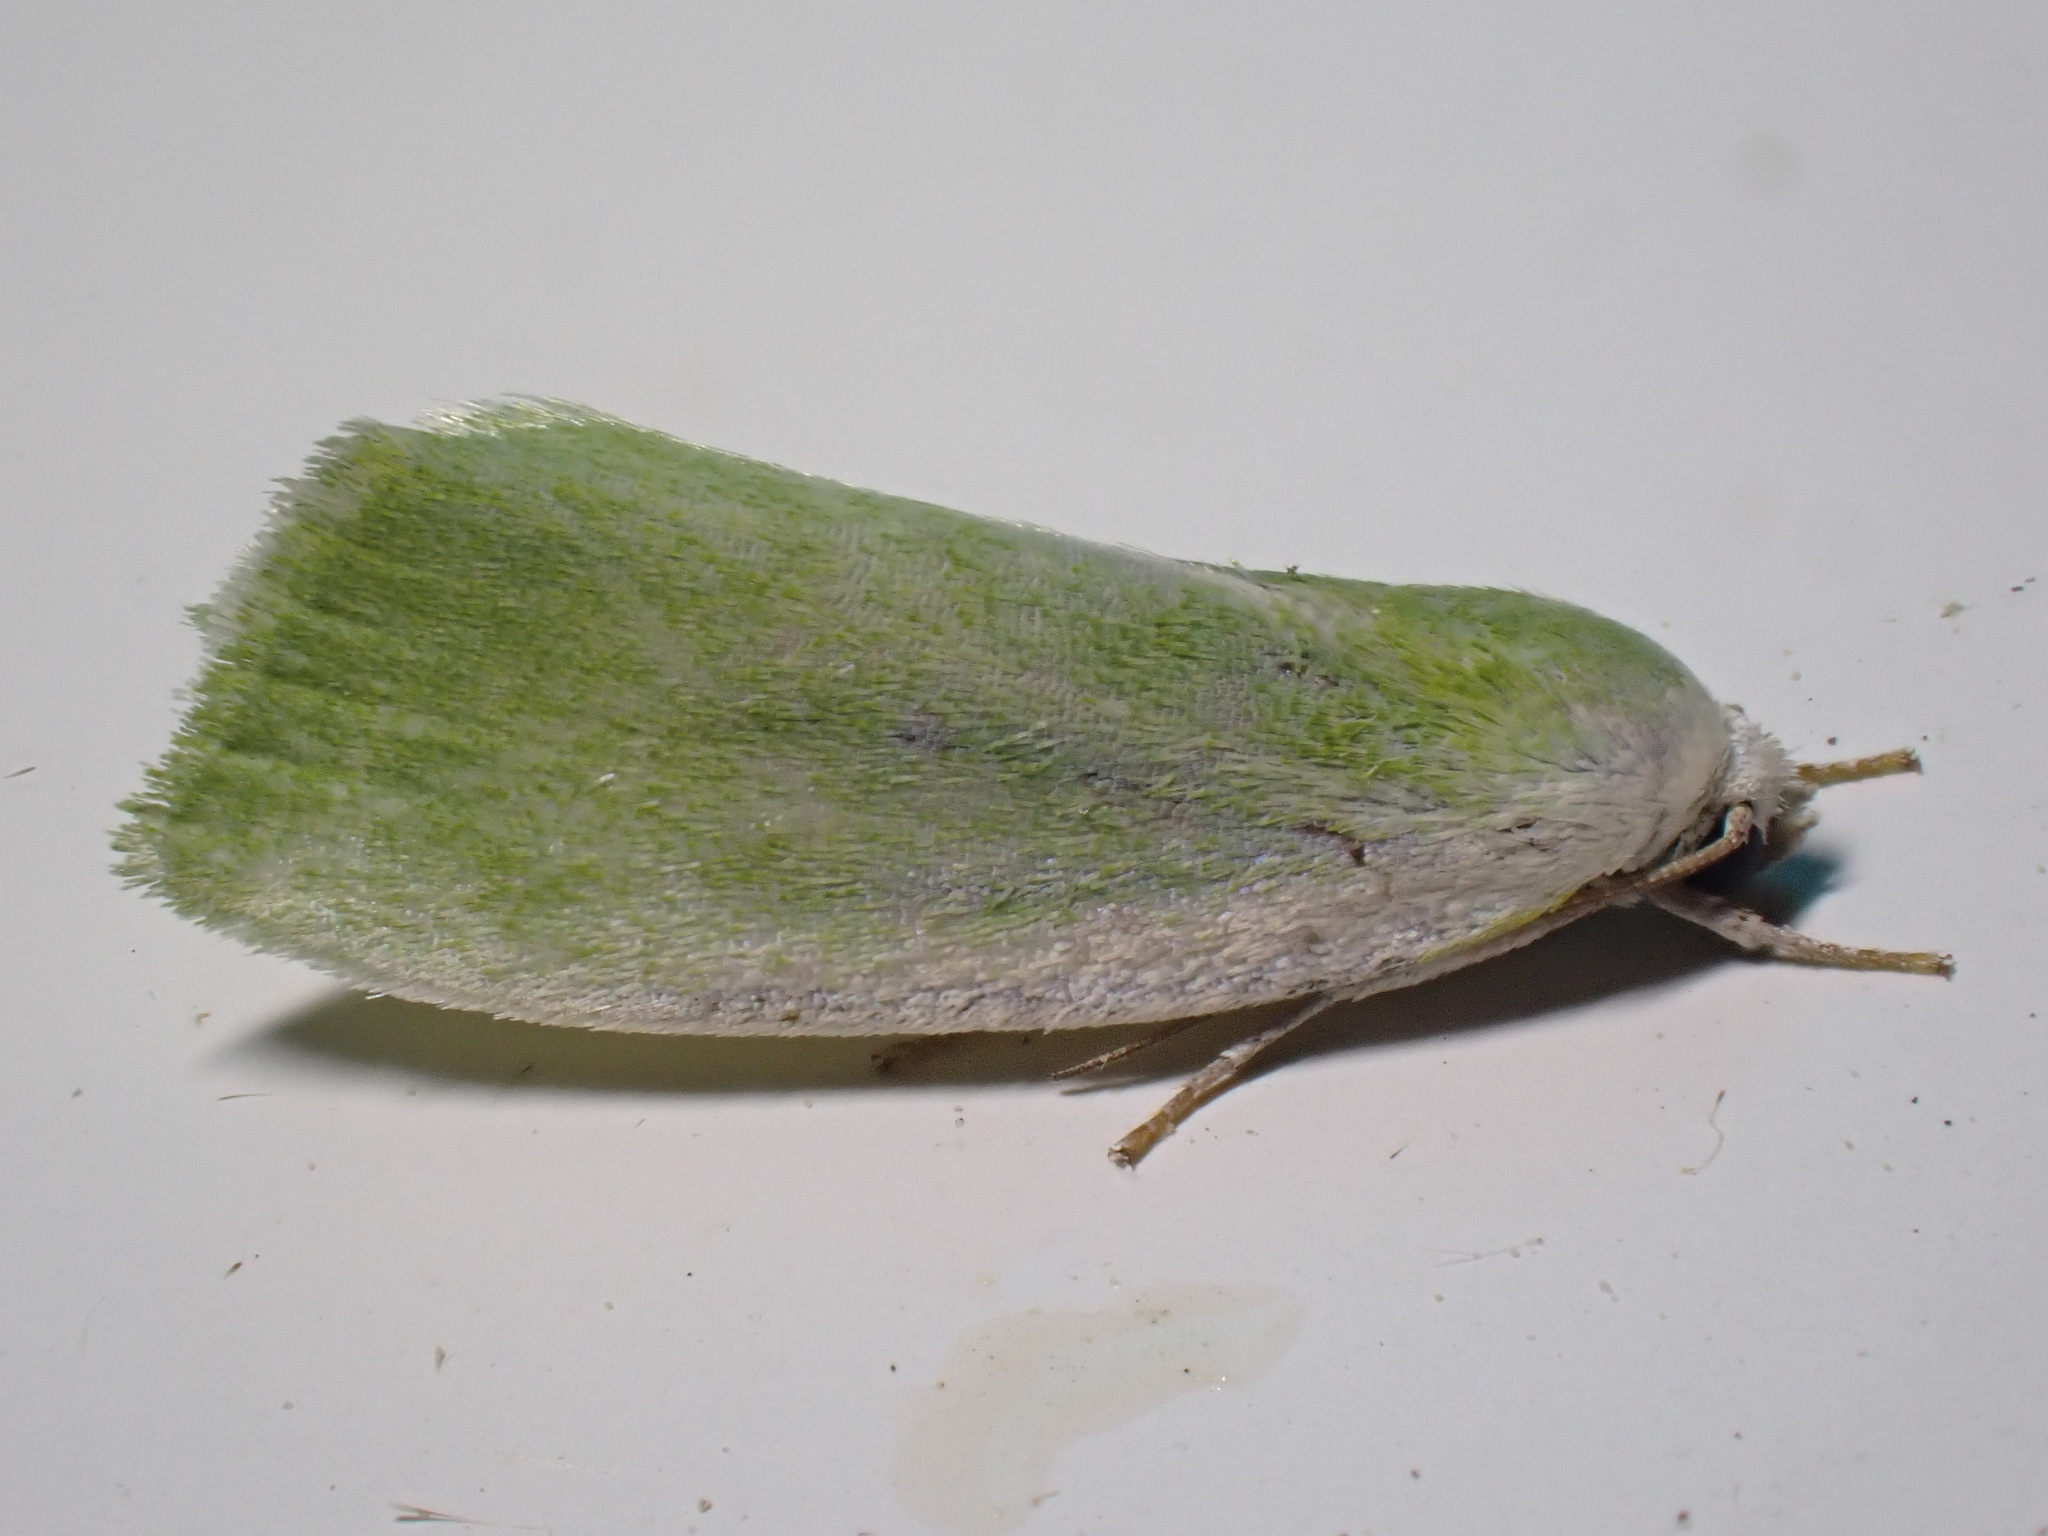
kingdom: Animalia
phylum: Arthropoda
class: Insecta
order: Lepidoptera
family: Nolidae
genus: Earias
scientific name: Earias clorana
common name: Cream-bordered green pea
